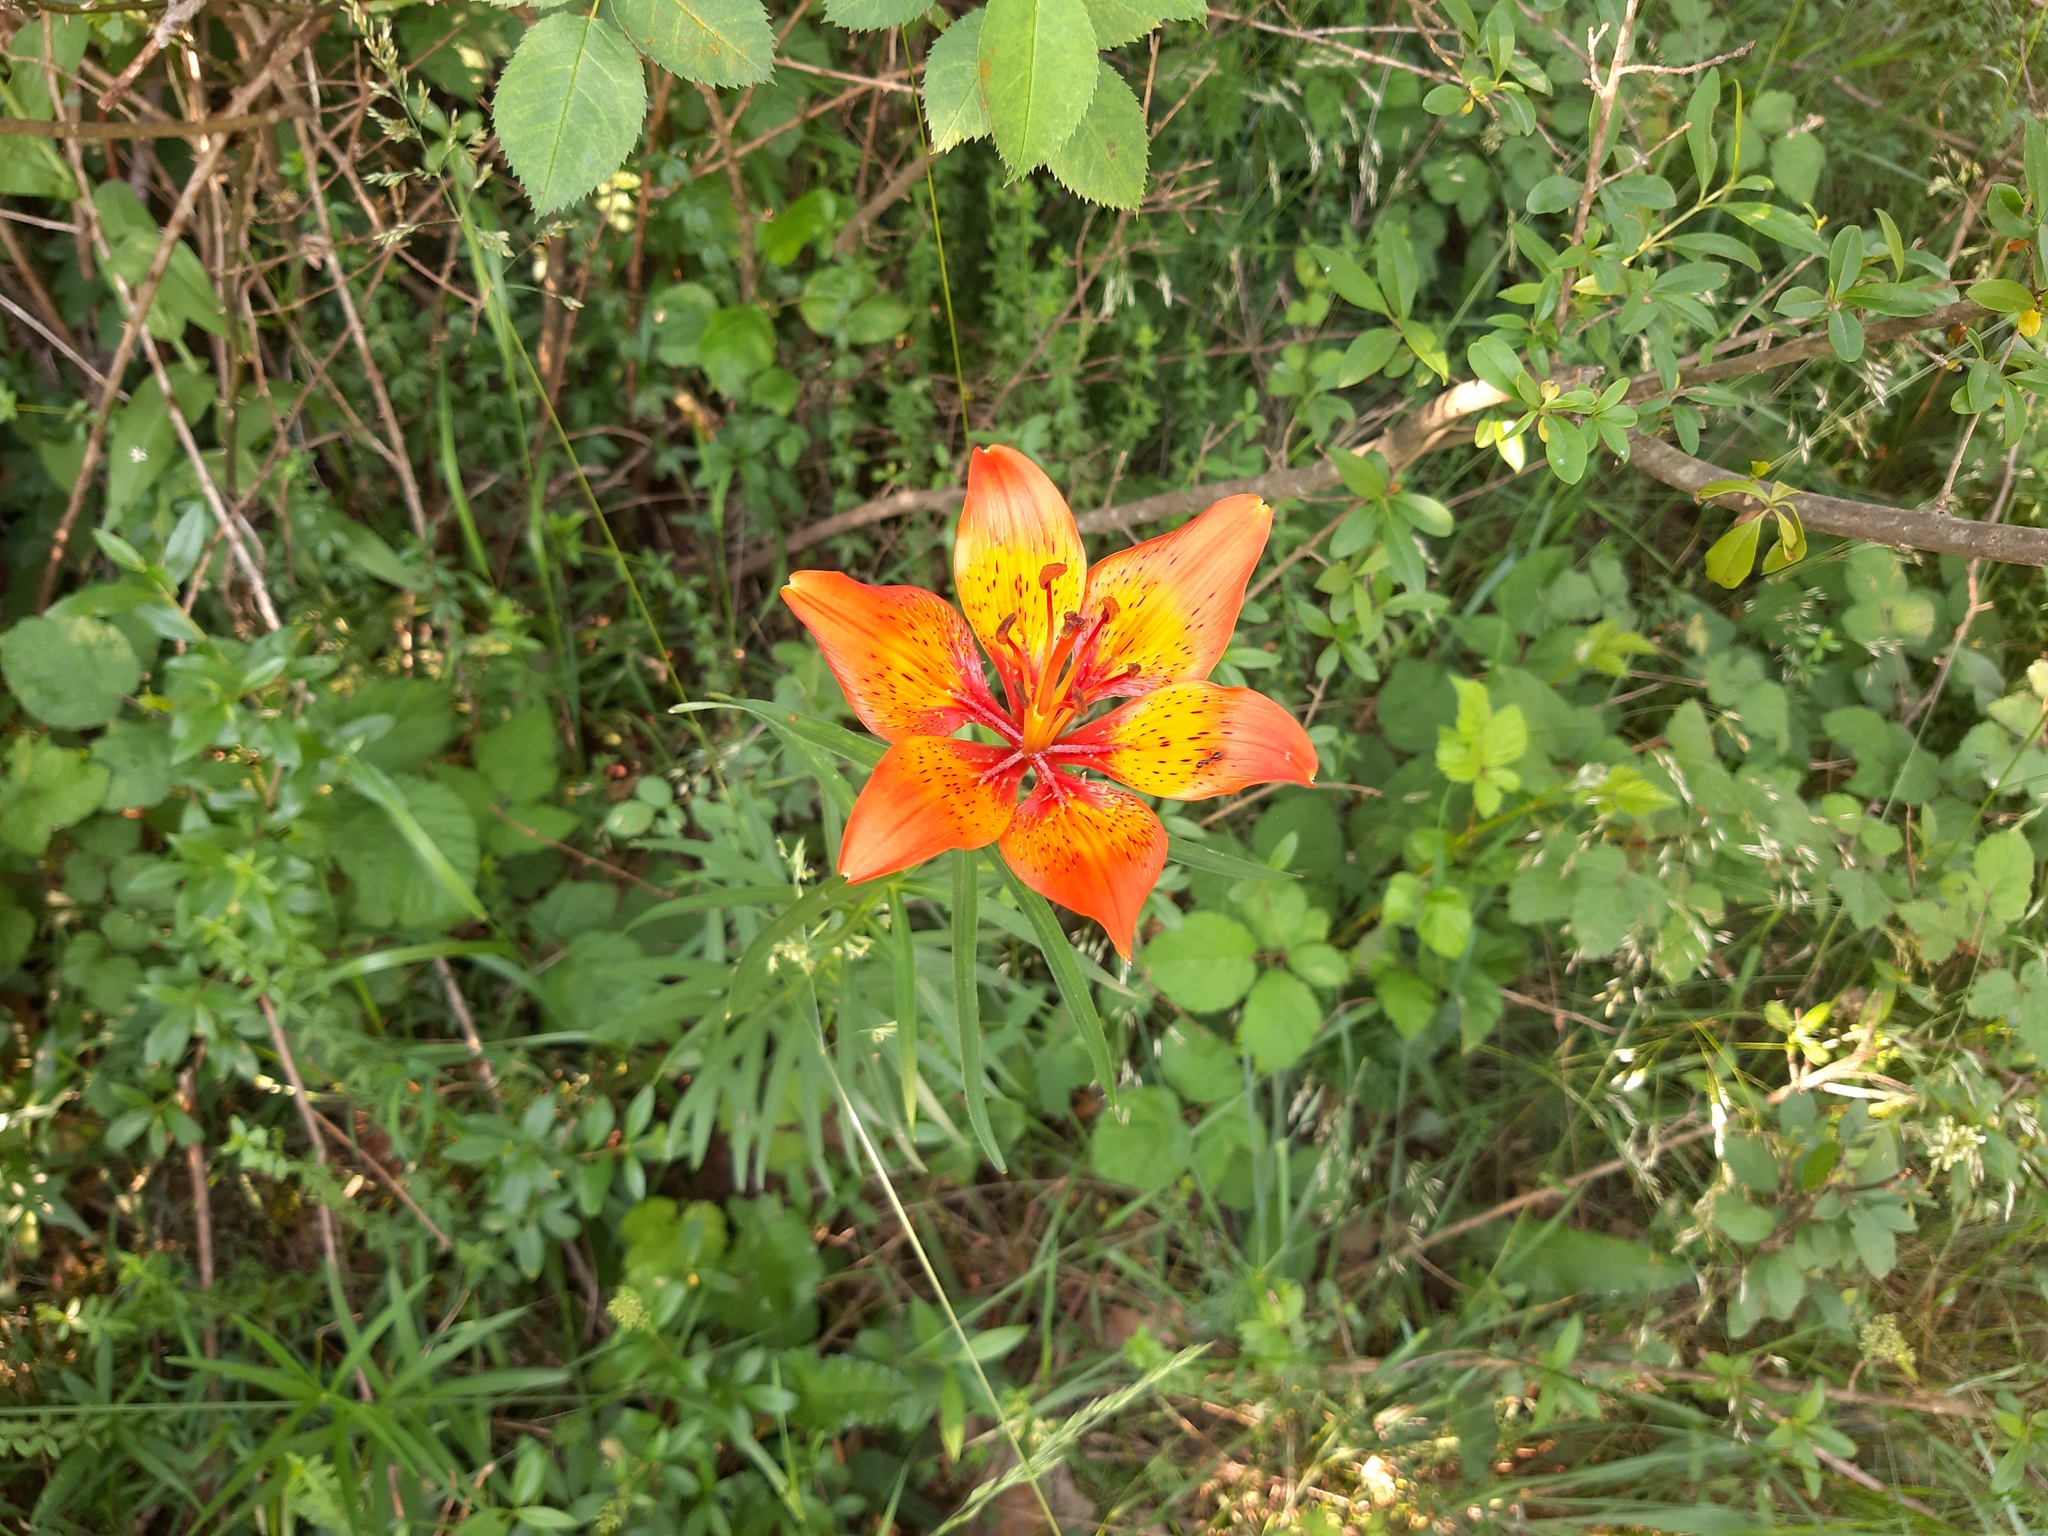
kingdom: Plantae
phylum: Tracheophyta
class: Liliopsida
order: Liliales
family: Liliaceae
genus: Lilium
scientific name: Lilium bulbiferum
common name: Orange lily
